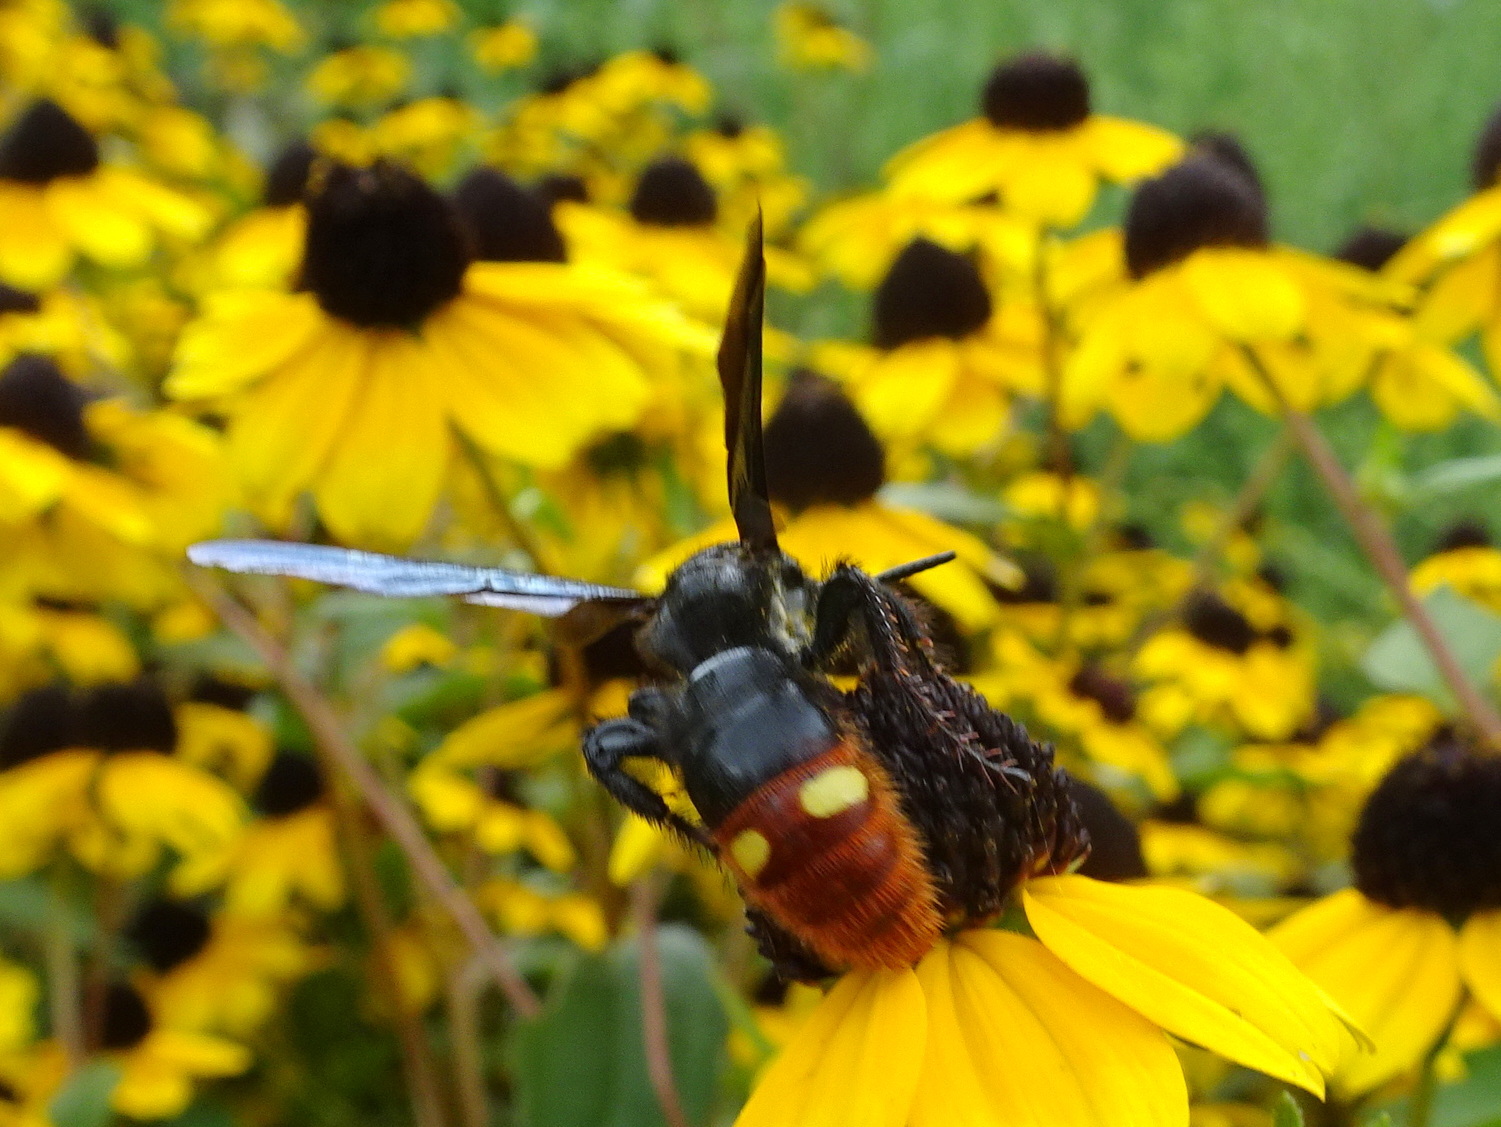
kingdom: Animalia
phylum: Arthropoda
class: Insecta
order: Hymenoptera
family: Scoliidae
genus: Scolia
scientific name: Scolia dubia
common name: Blue-winged scoliid wasp
